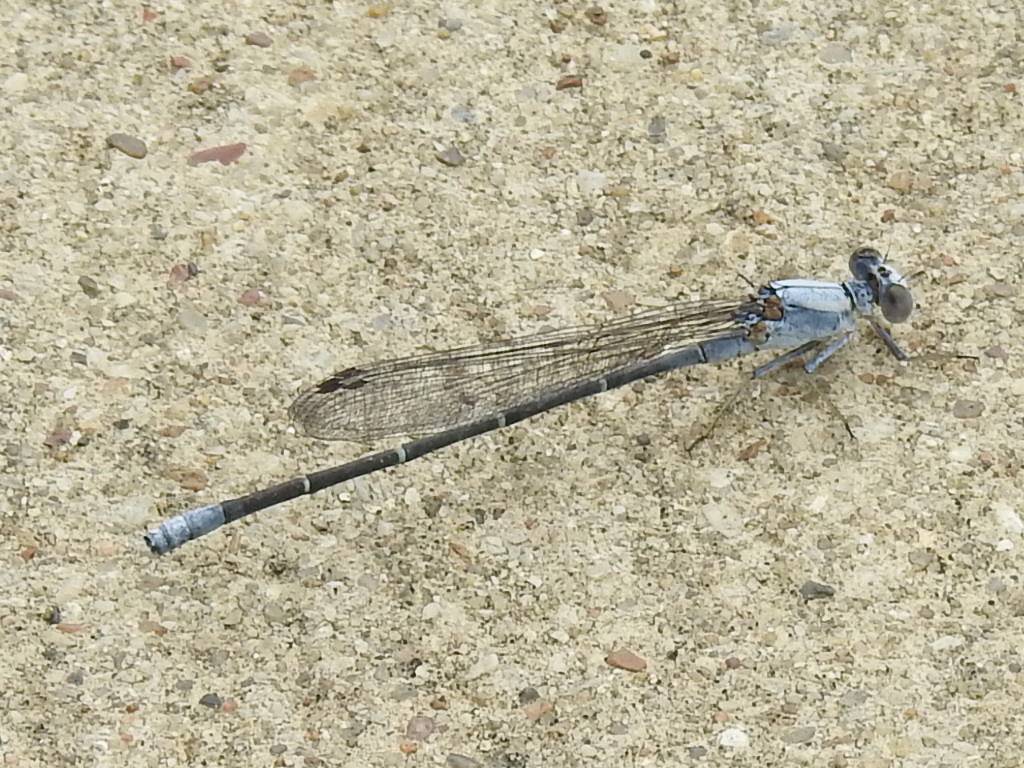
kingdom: Animalia
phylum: Arthropoda
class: Insecta
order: Odonata
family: Coenagrionidae
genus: Argia
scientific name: Argia moesta
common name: Powdered dancer
